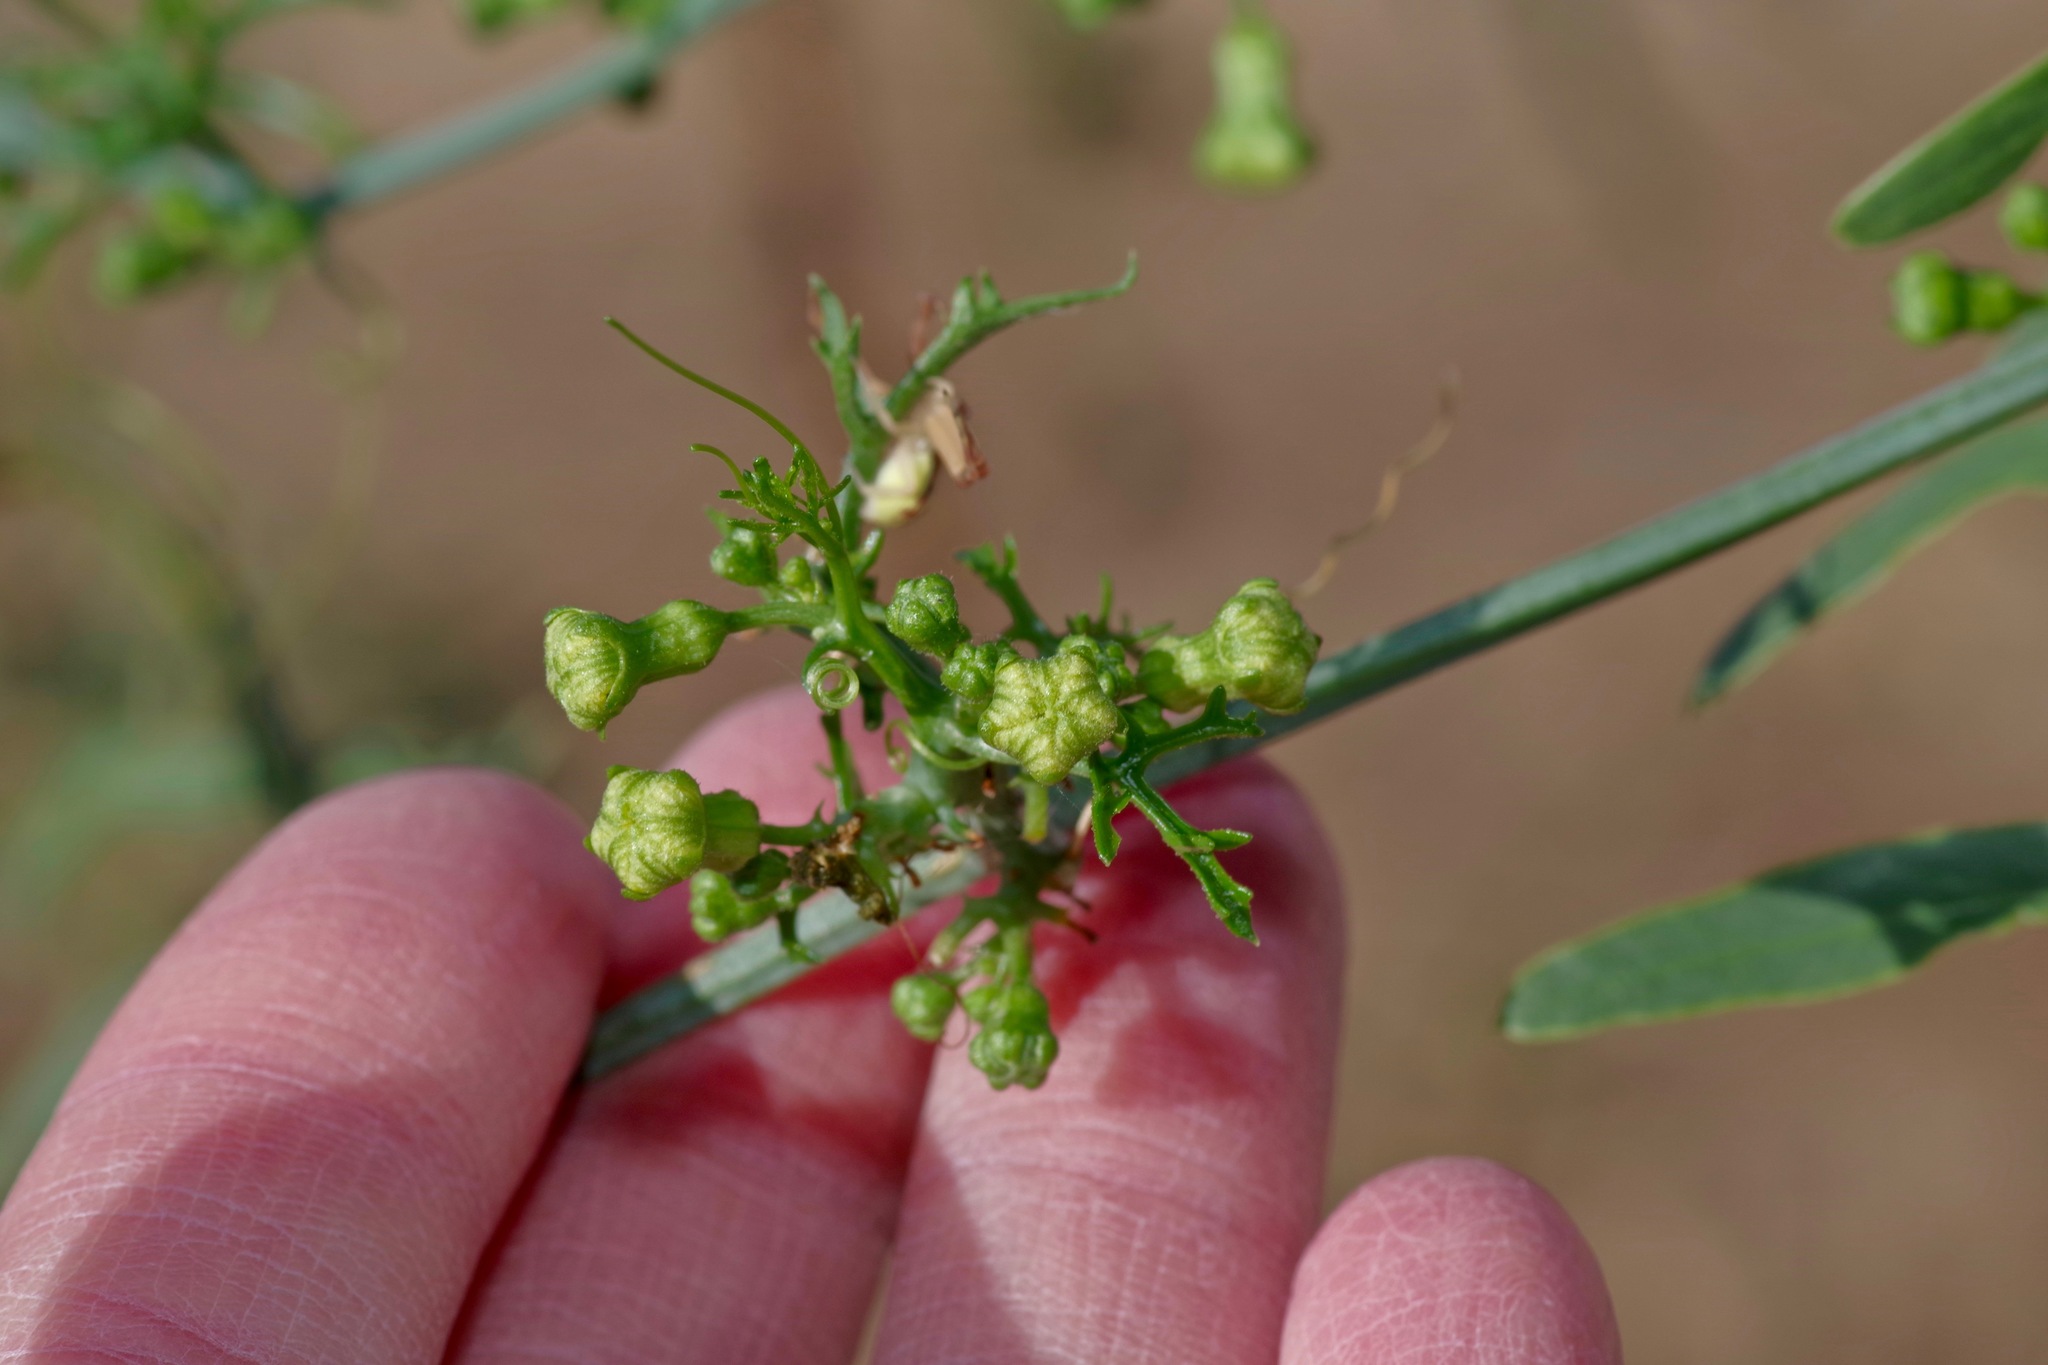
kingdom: Plantae
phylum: Tracheophyta
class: Magnoliopsida
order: Cucurbitales
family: Cucurbitaceae
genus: Ibervillea
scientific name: Ibervillea tenuisecta
